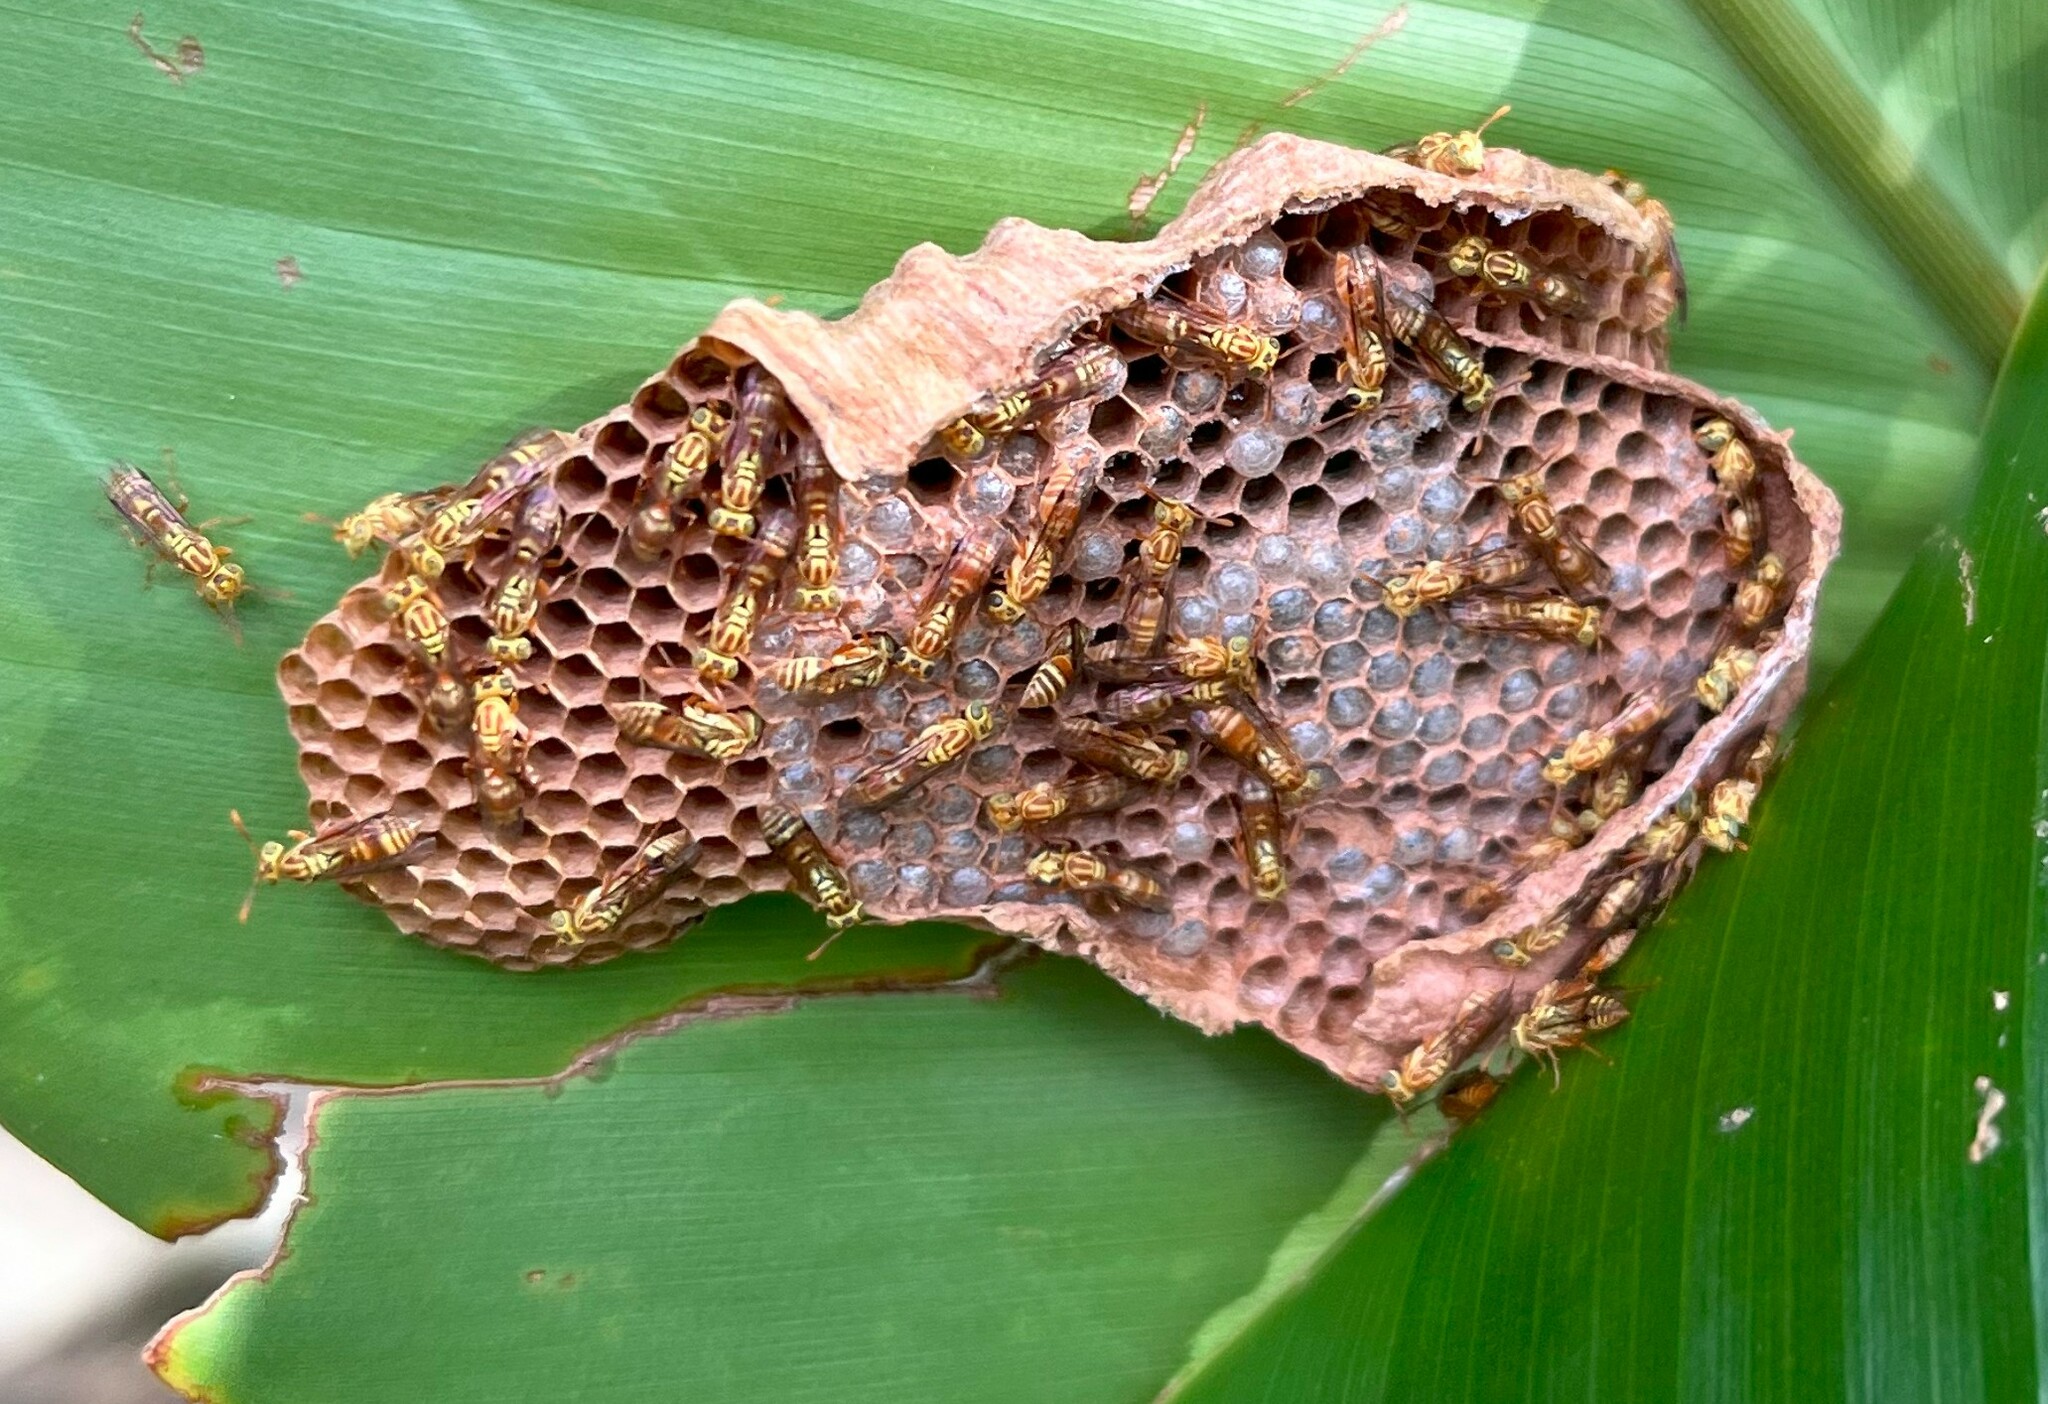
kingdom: Animalia
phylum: Arthropoda
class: Insecta
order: Hymenoptera
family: Vespidae
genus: Protopolybia
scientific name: Protopolybia potiguara
